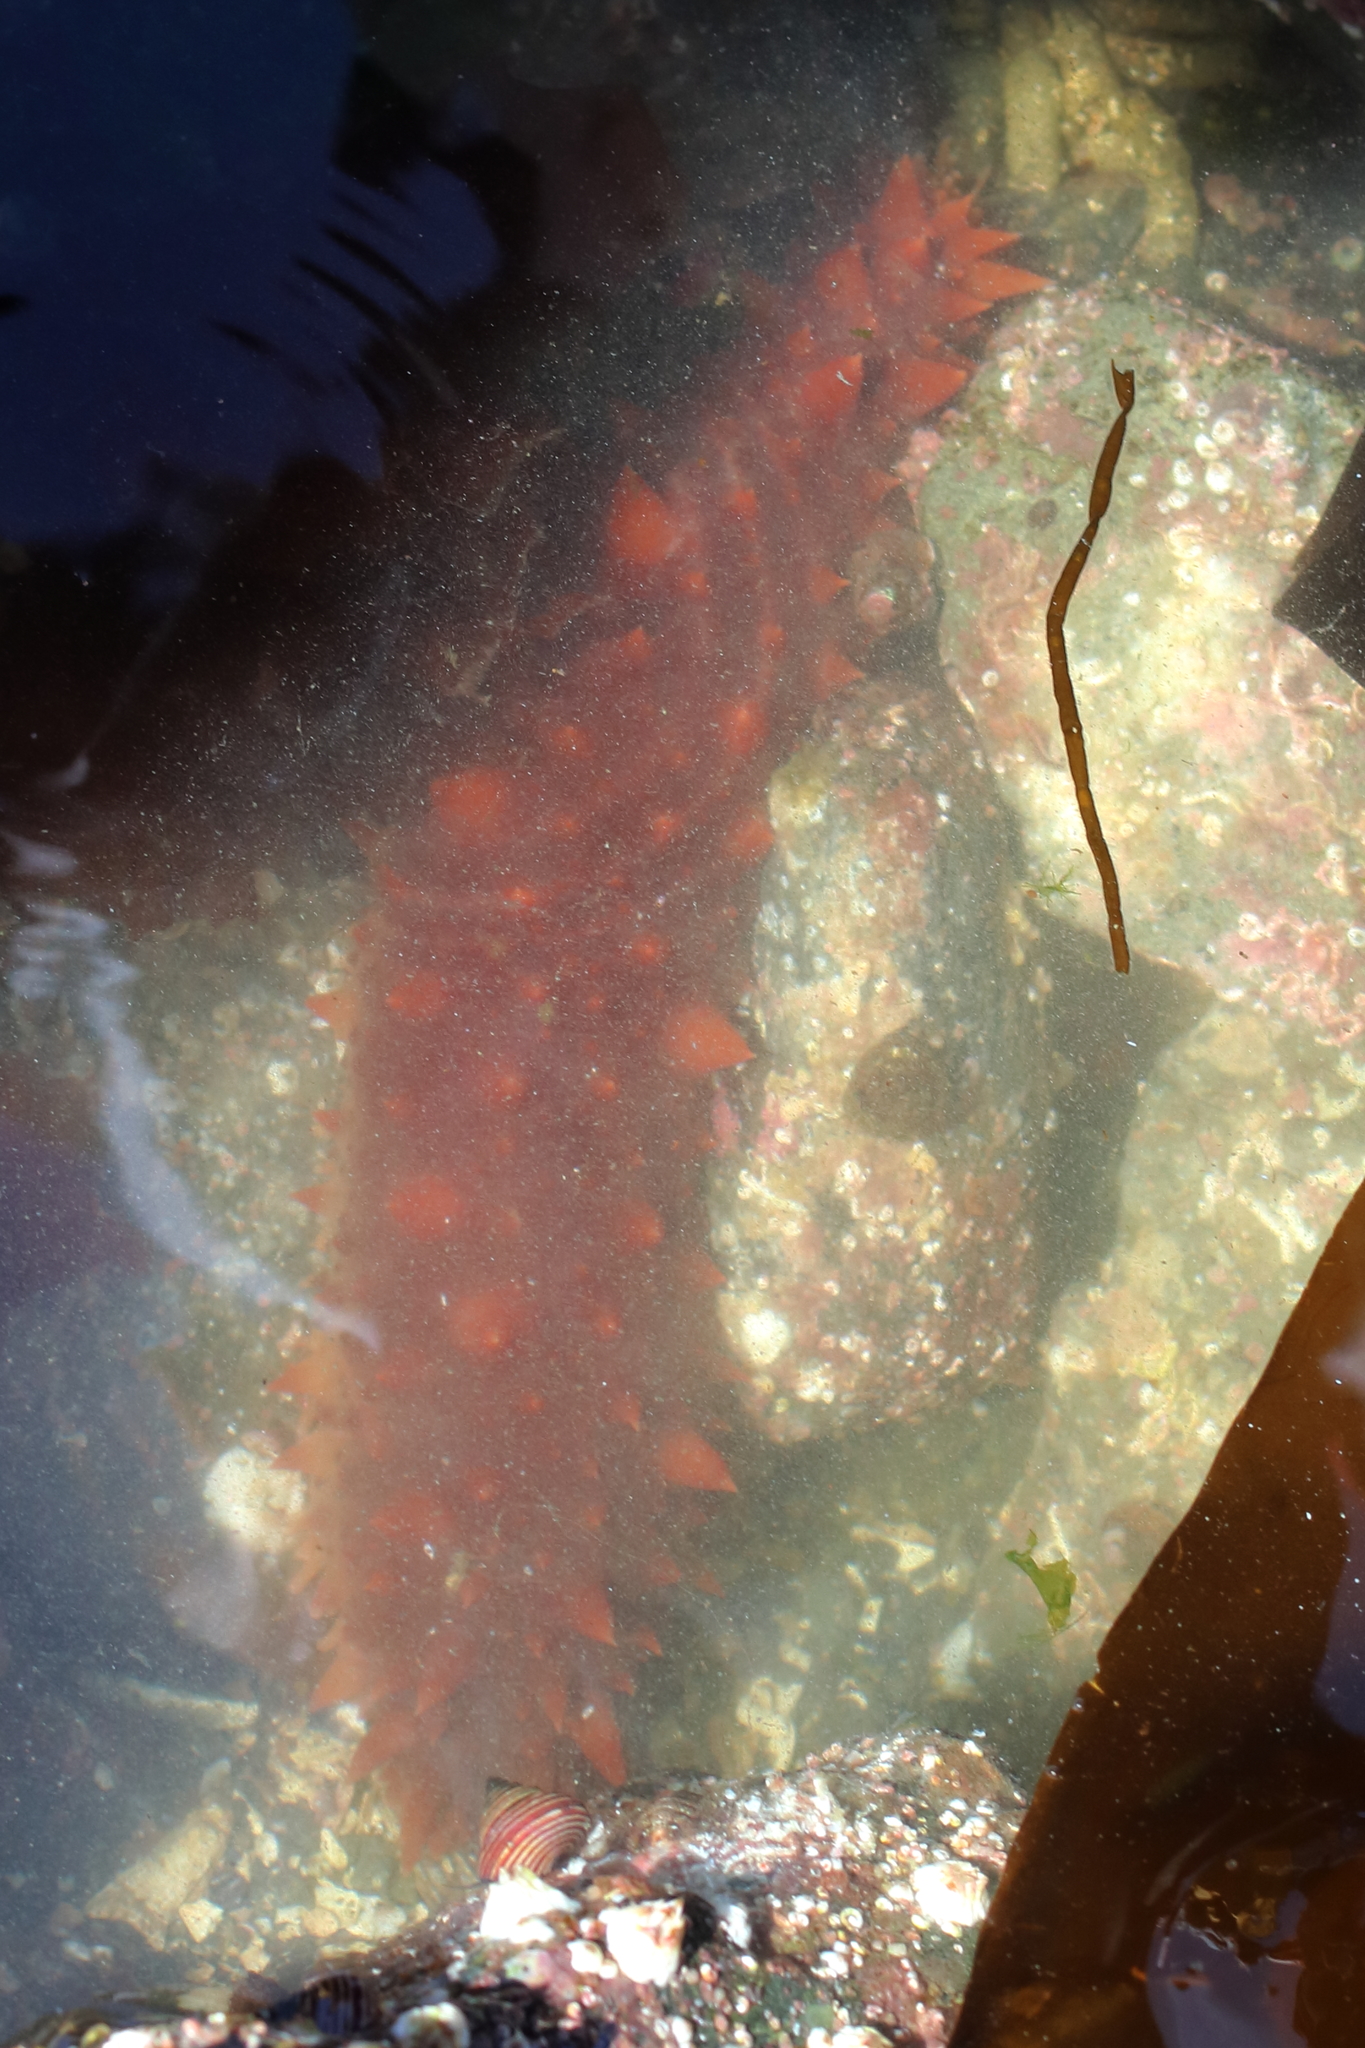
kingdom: Animalia
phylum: Echinodermata
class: Holothuroidea
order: Synallactida
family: Stichopodidae
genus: Apostichopus
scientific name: Apostichopus californicus
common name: California sea cucumber
